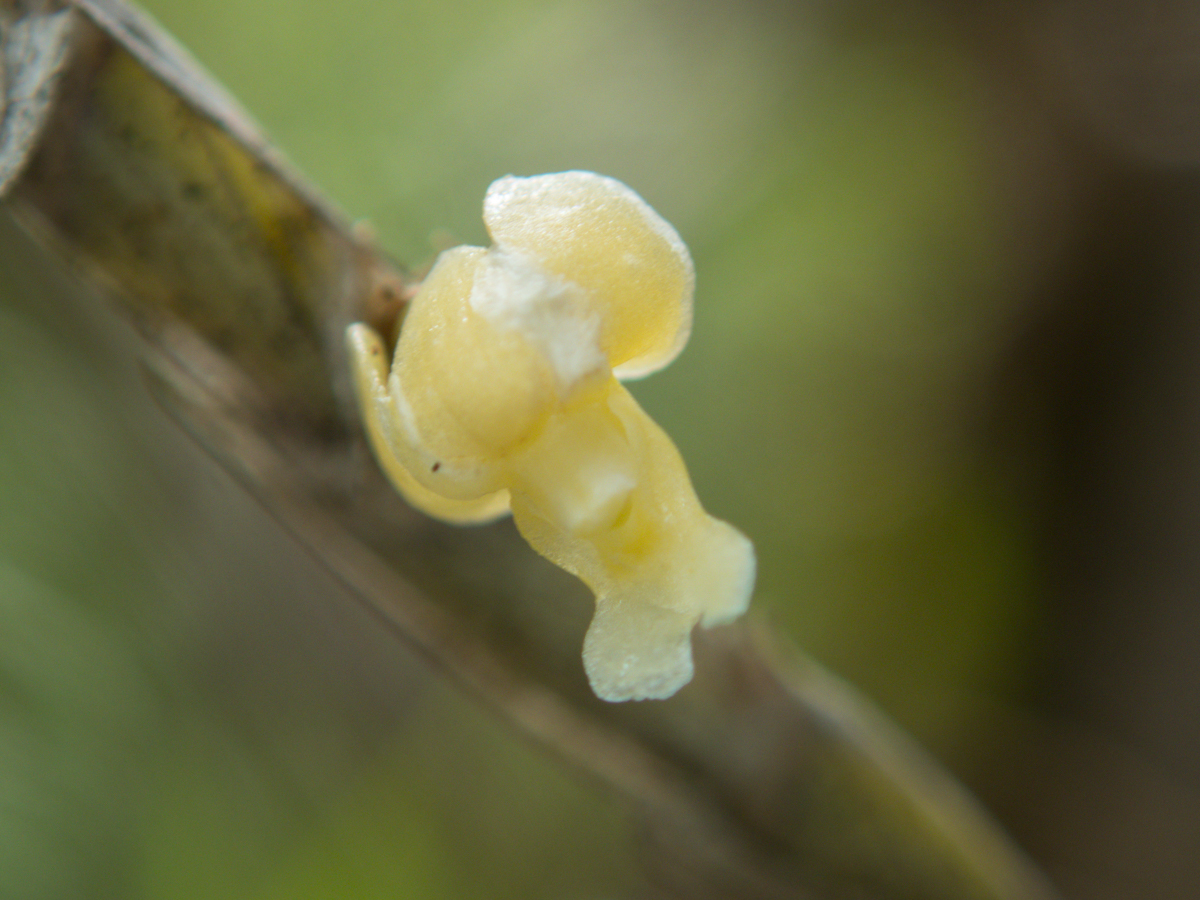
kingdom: Plantae
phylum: Tracheophyta
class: Liliopsida
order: Asparagales
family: Orchidaceae
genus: Dendrobium
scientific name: Dendrobium aloifolium
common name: Aloe-like dendrobium
